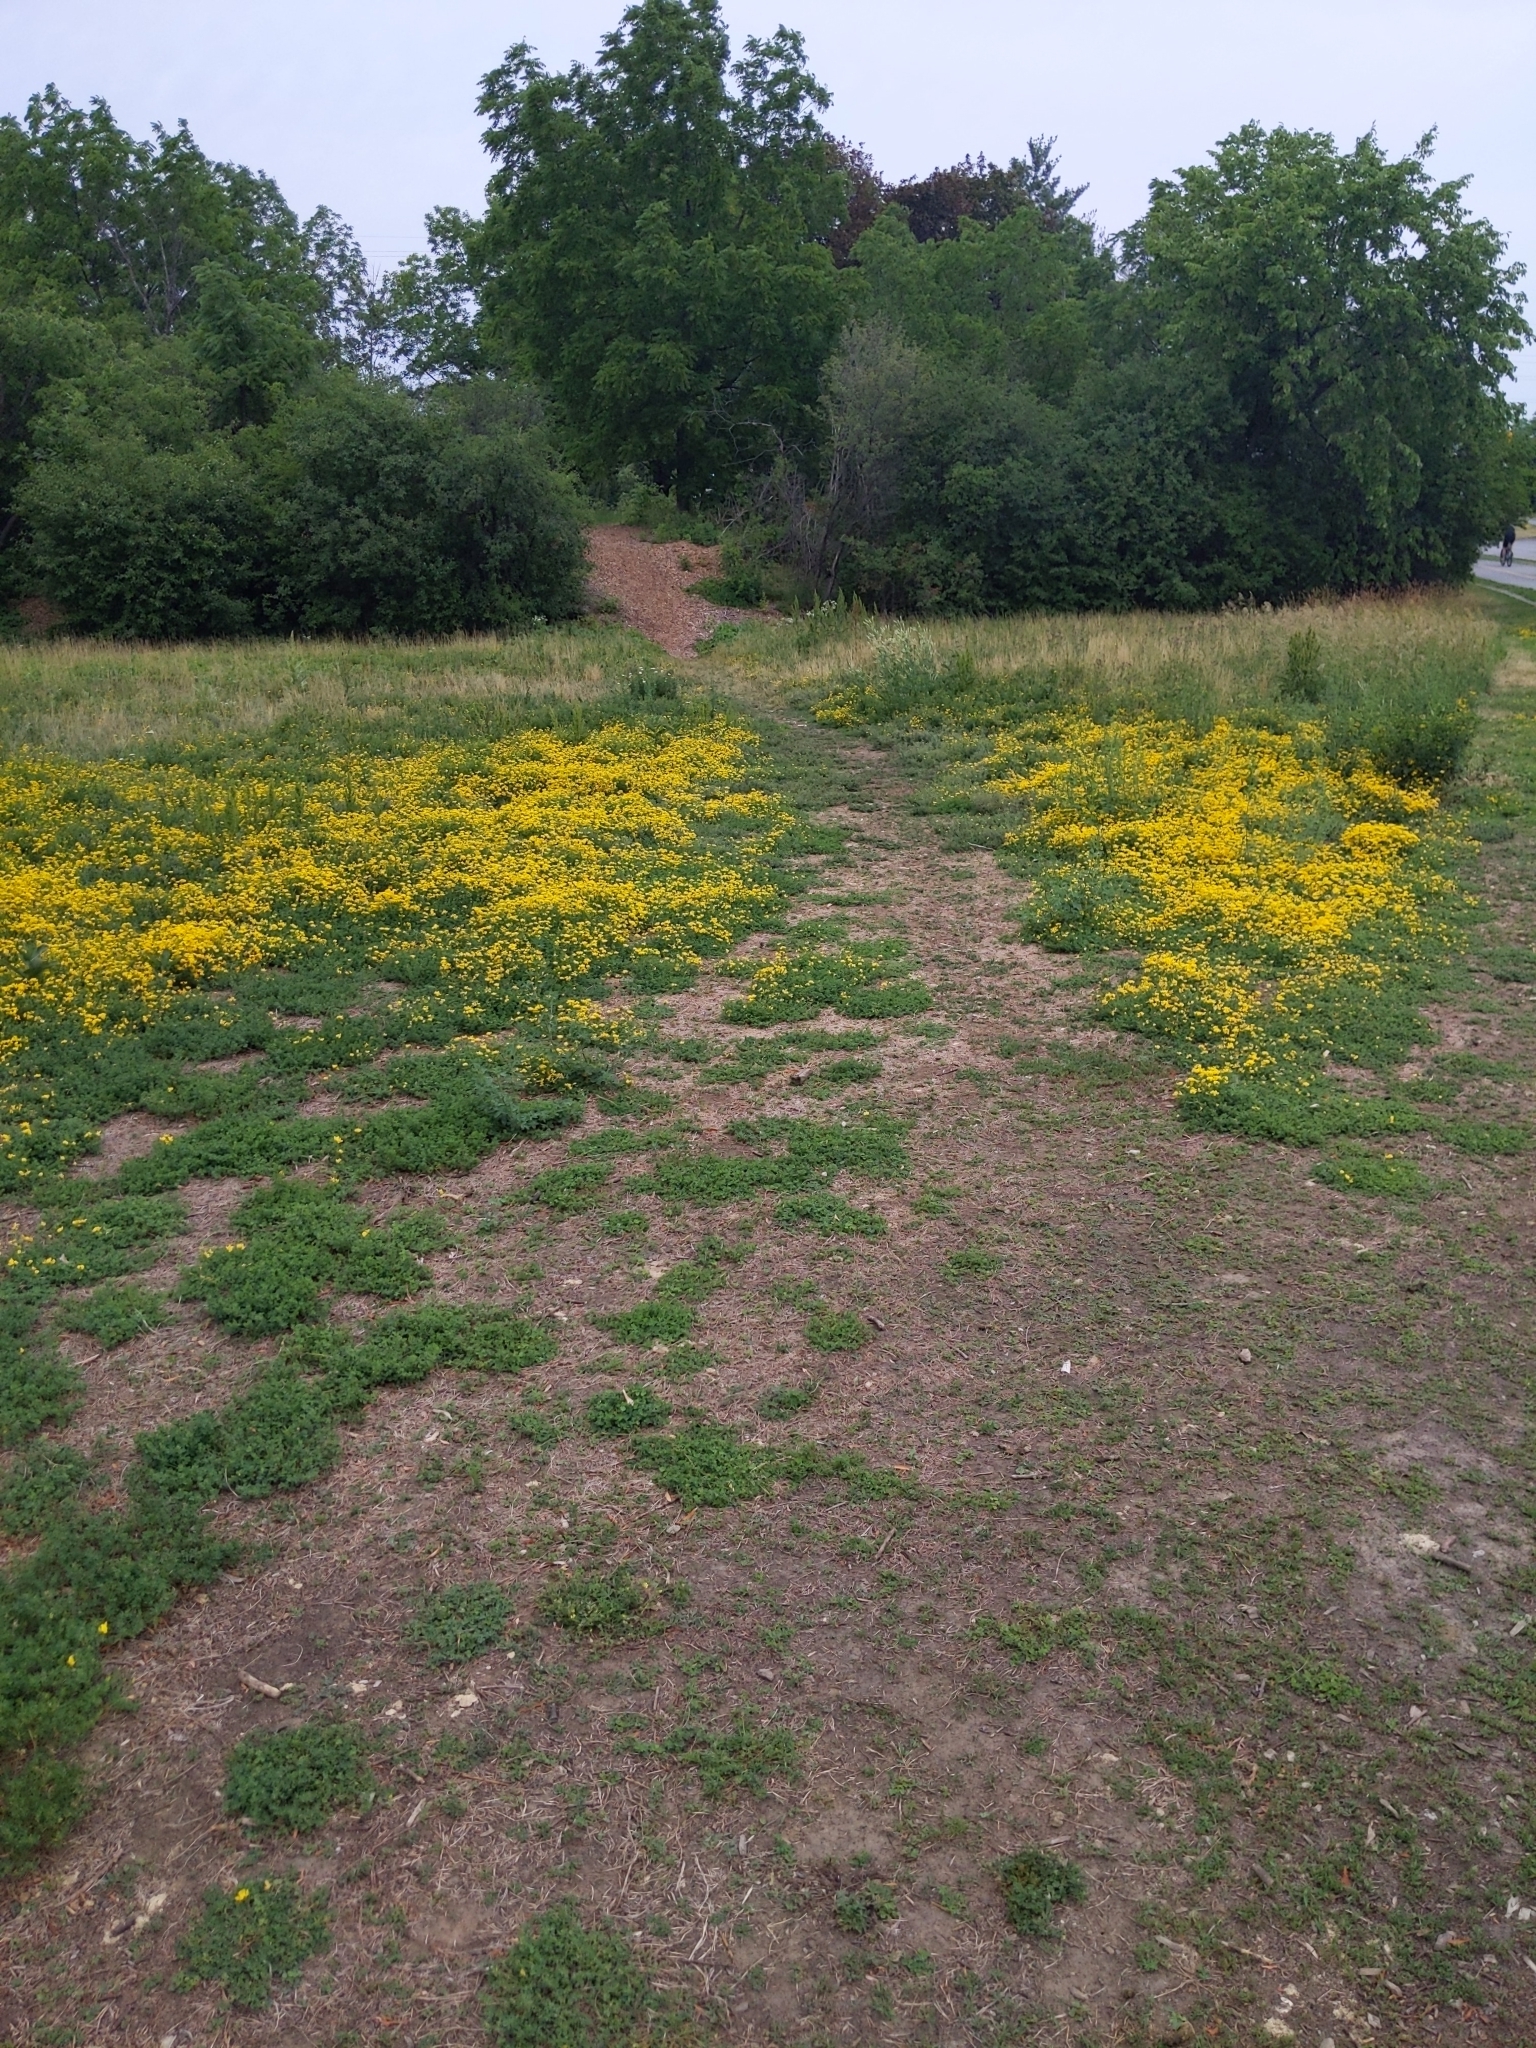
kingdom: Plantae
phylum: Tracheophyta
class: Magnoliopsida
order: Fabales
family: Fabaceae
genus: Lotus
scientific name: Lotus corniculatus
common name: Common bird's-foot-trefoil
